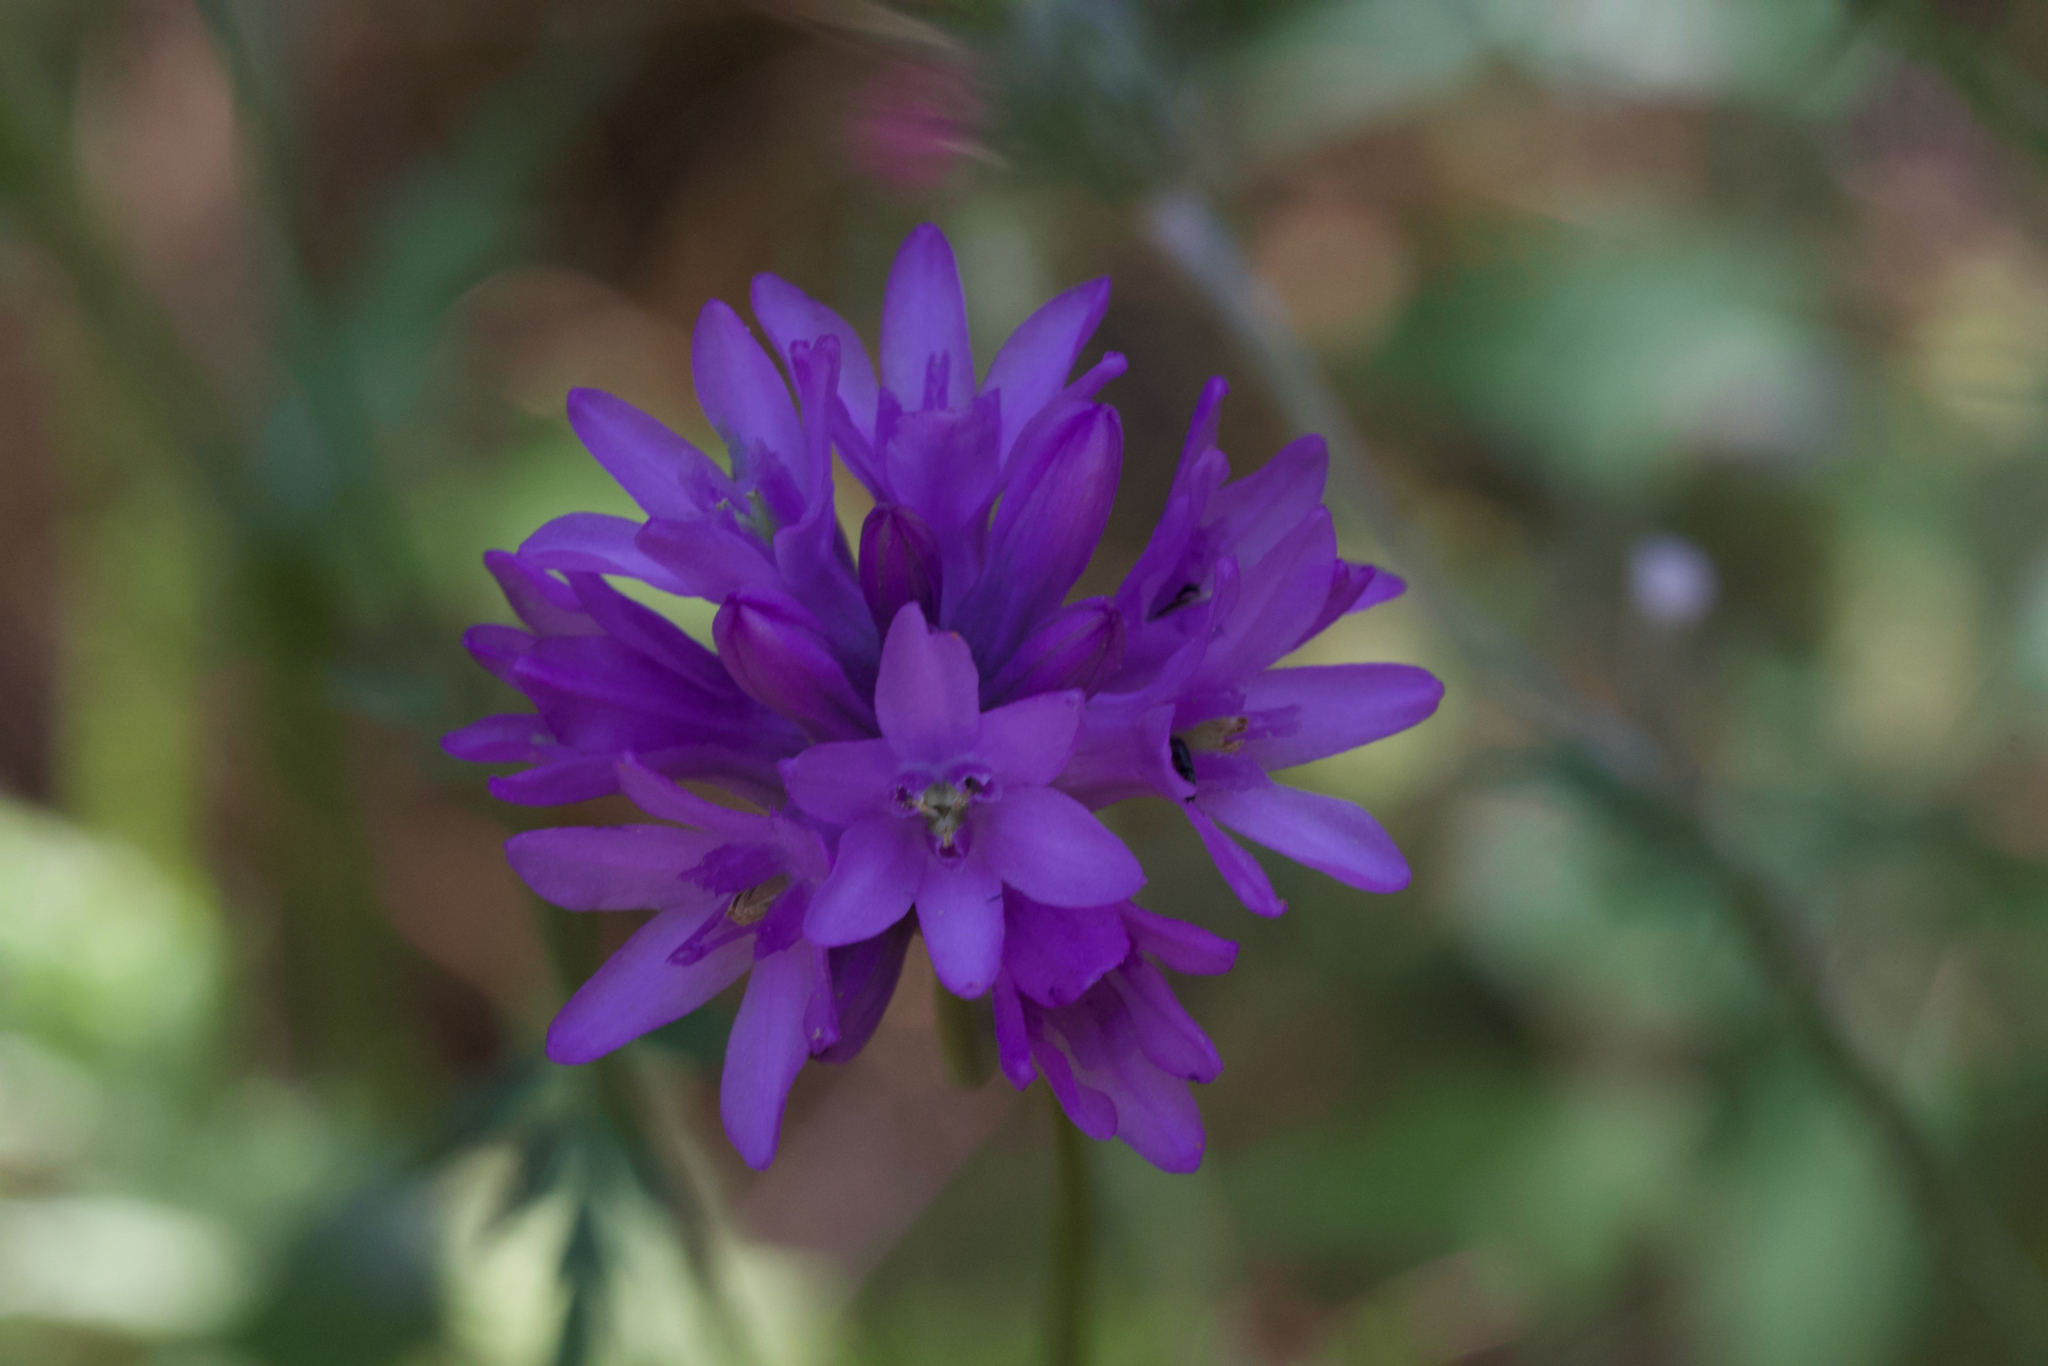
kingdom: Plantae
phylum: Tracheophyta
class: Liliopsida
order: Asparagales
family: Asparagaceae
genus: Dichelostemma
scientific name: Dichelostemma congestum
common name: Fork-tooth ookow
